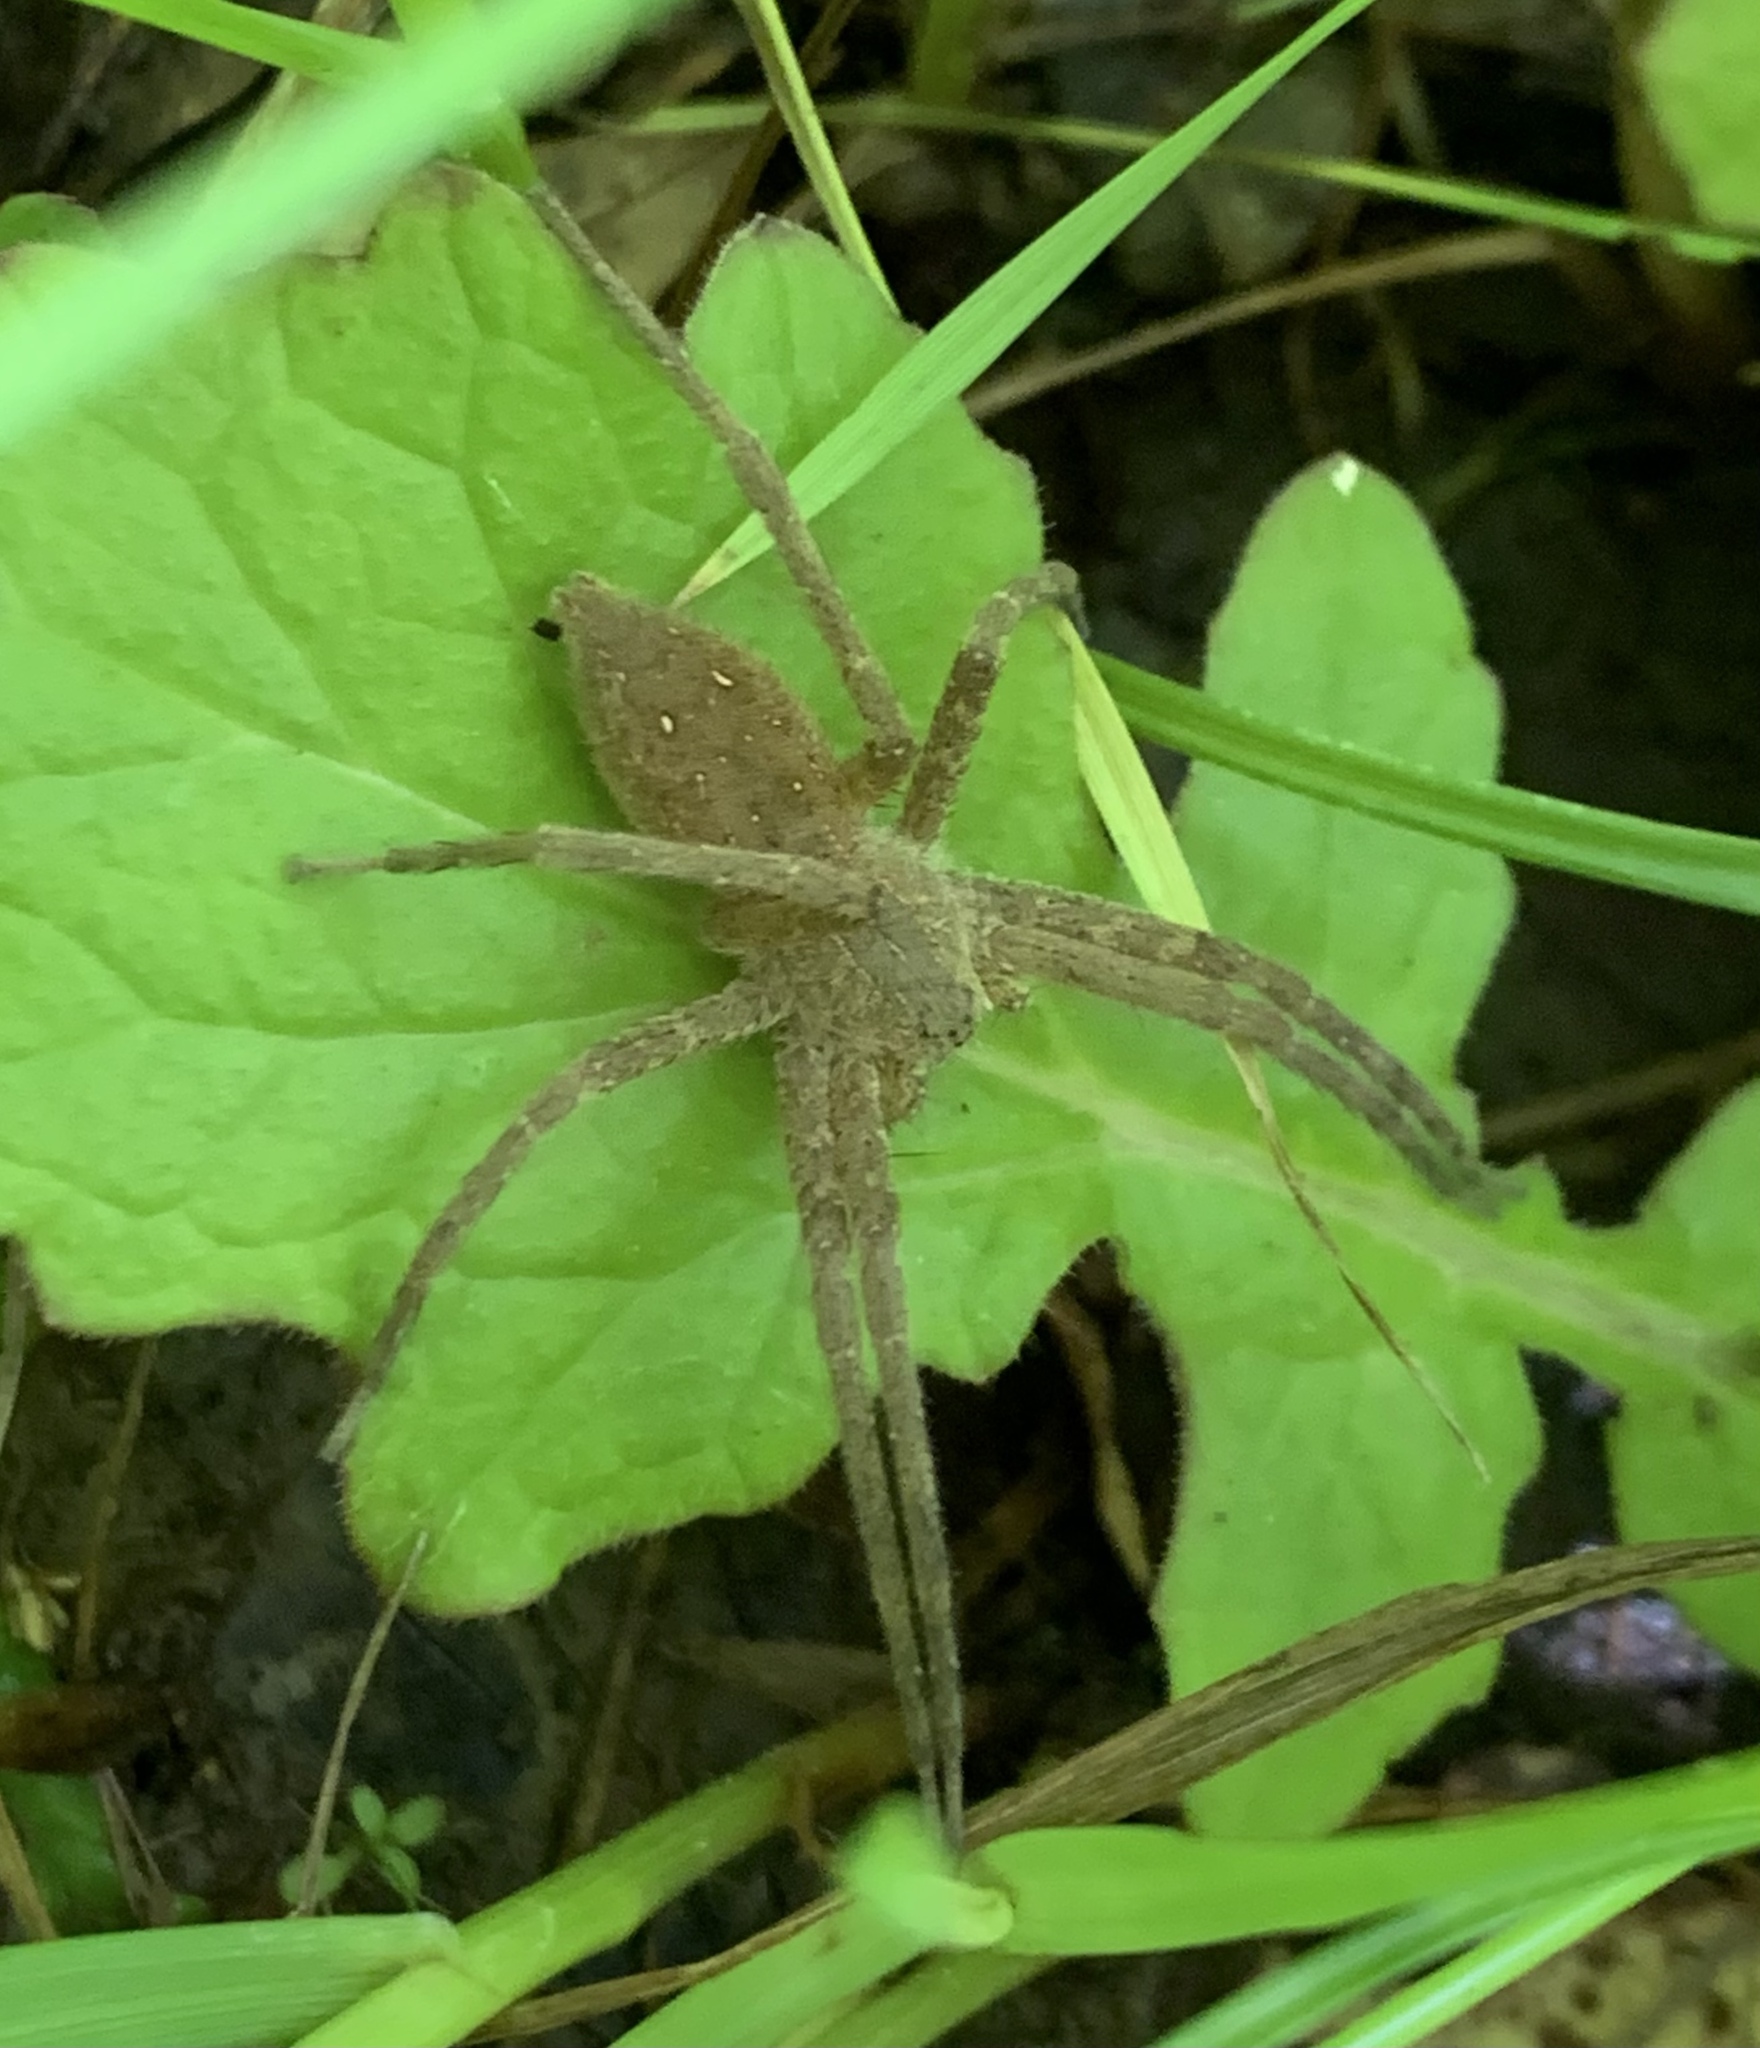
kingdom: Animalia
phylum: Arthropoda
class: Arachnida
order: Araneae
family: Pisauridae
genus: Pisaurina
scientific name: Pisaurina mira
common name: American nursery web spider
